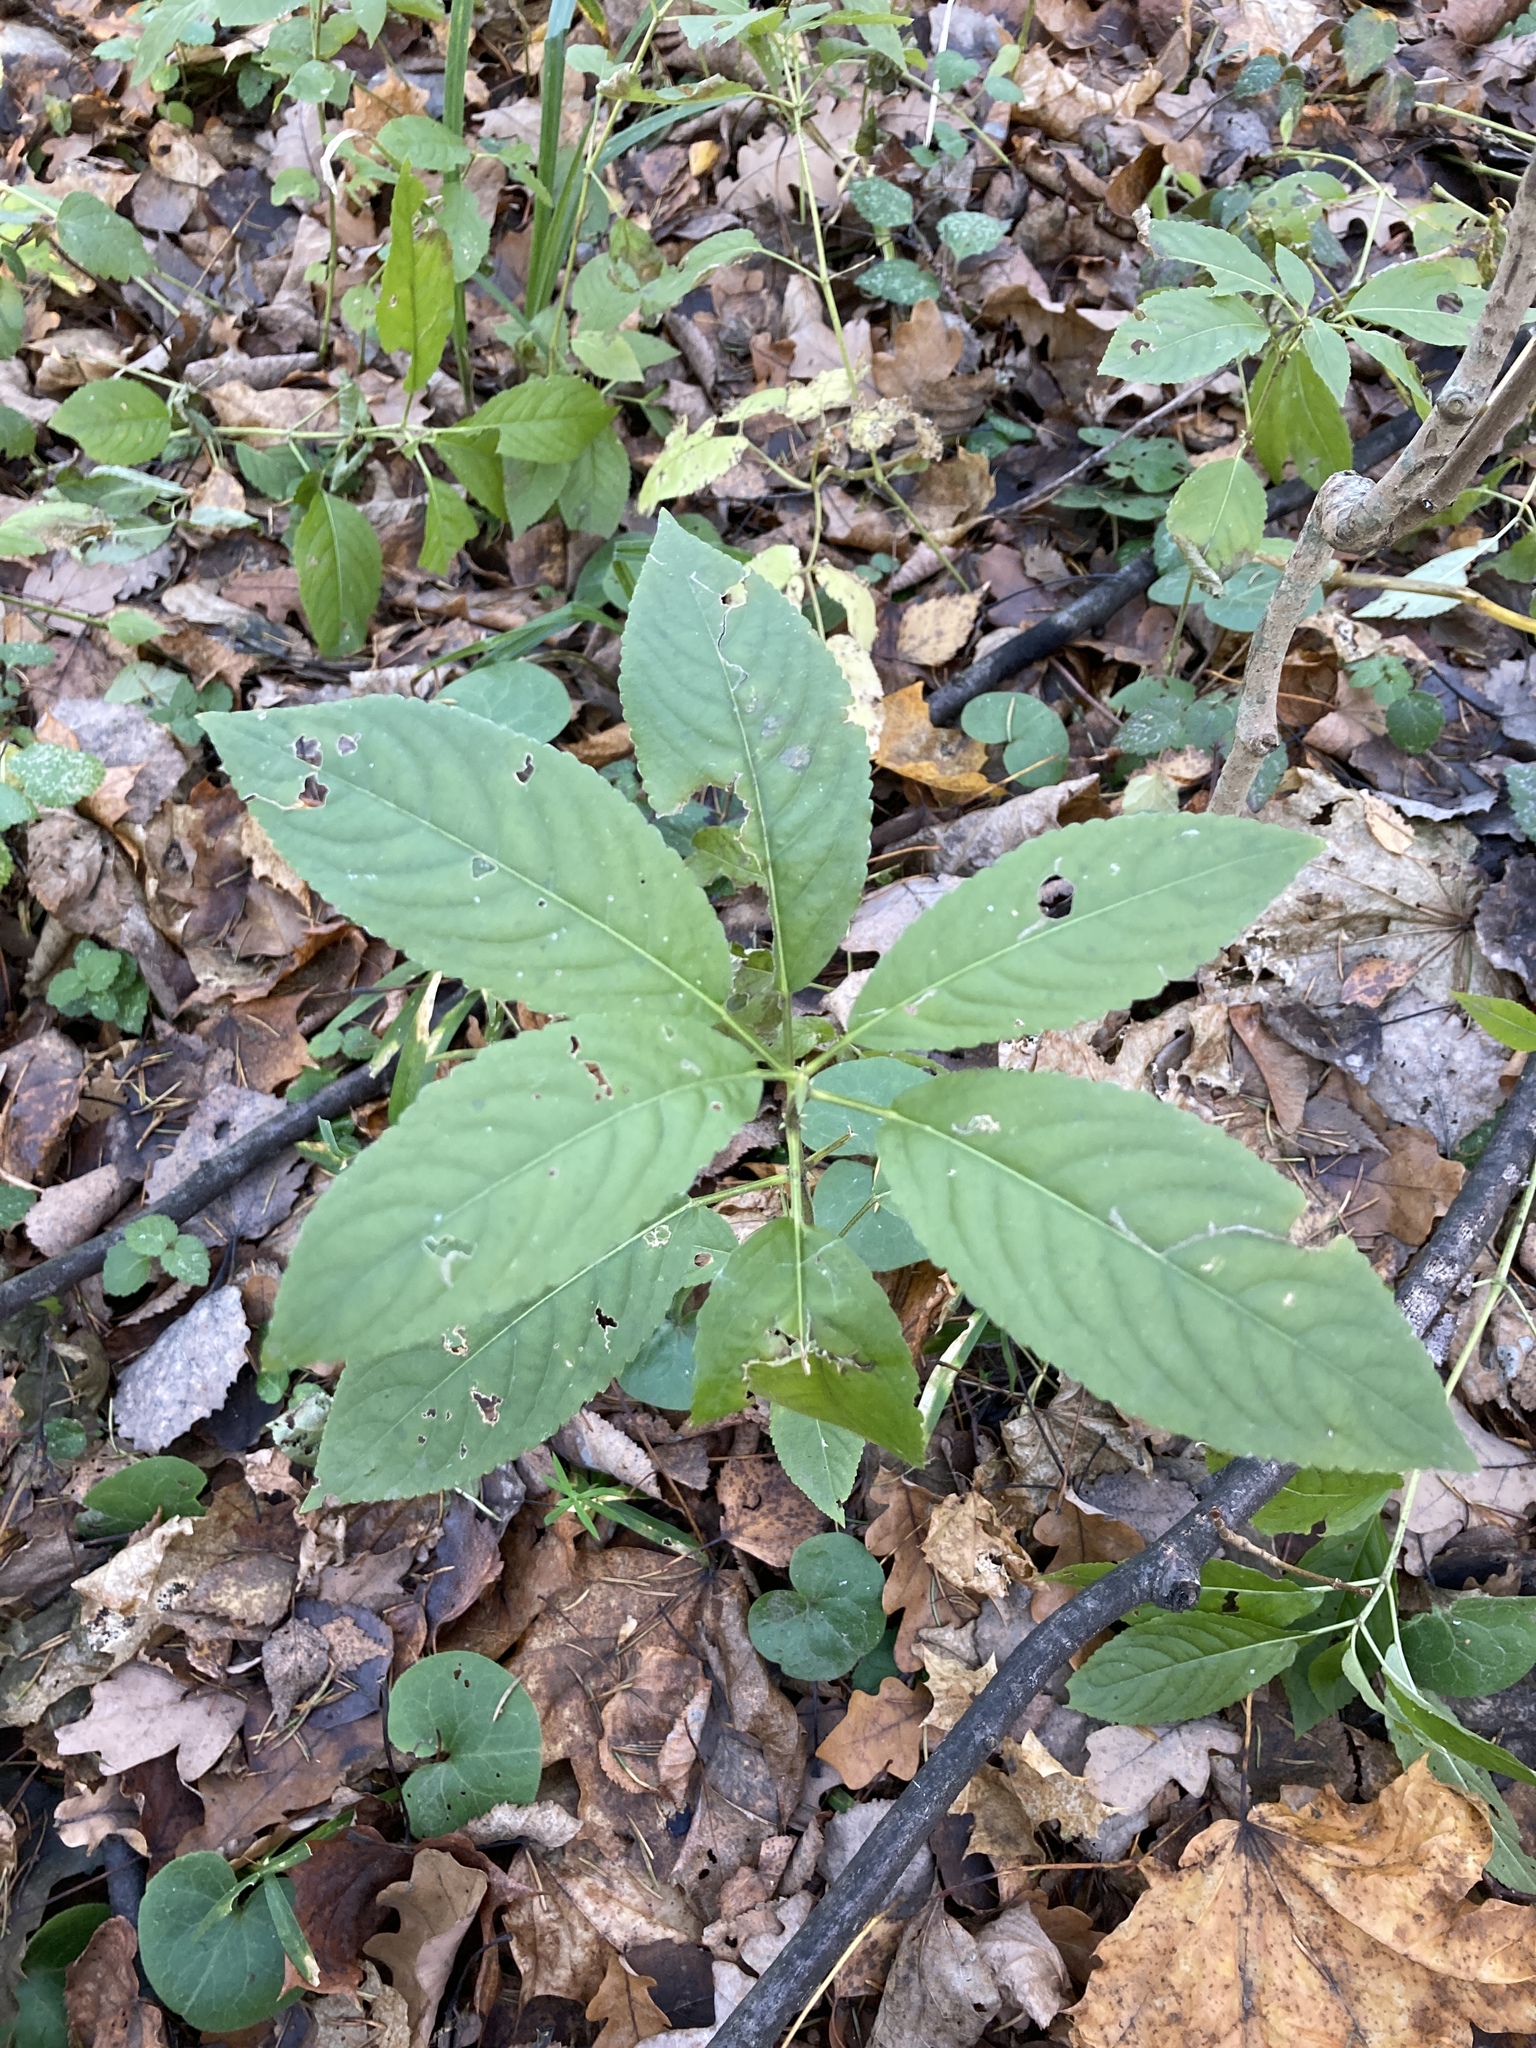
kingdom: Plantae
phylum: Tracheophyta
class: Magnoliopsida
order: Malpighiales
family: Euphorbiaceae
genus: Mercurialis
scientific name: Mercurialis perennis
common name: Dog mercury
